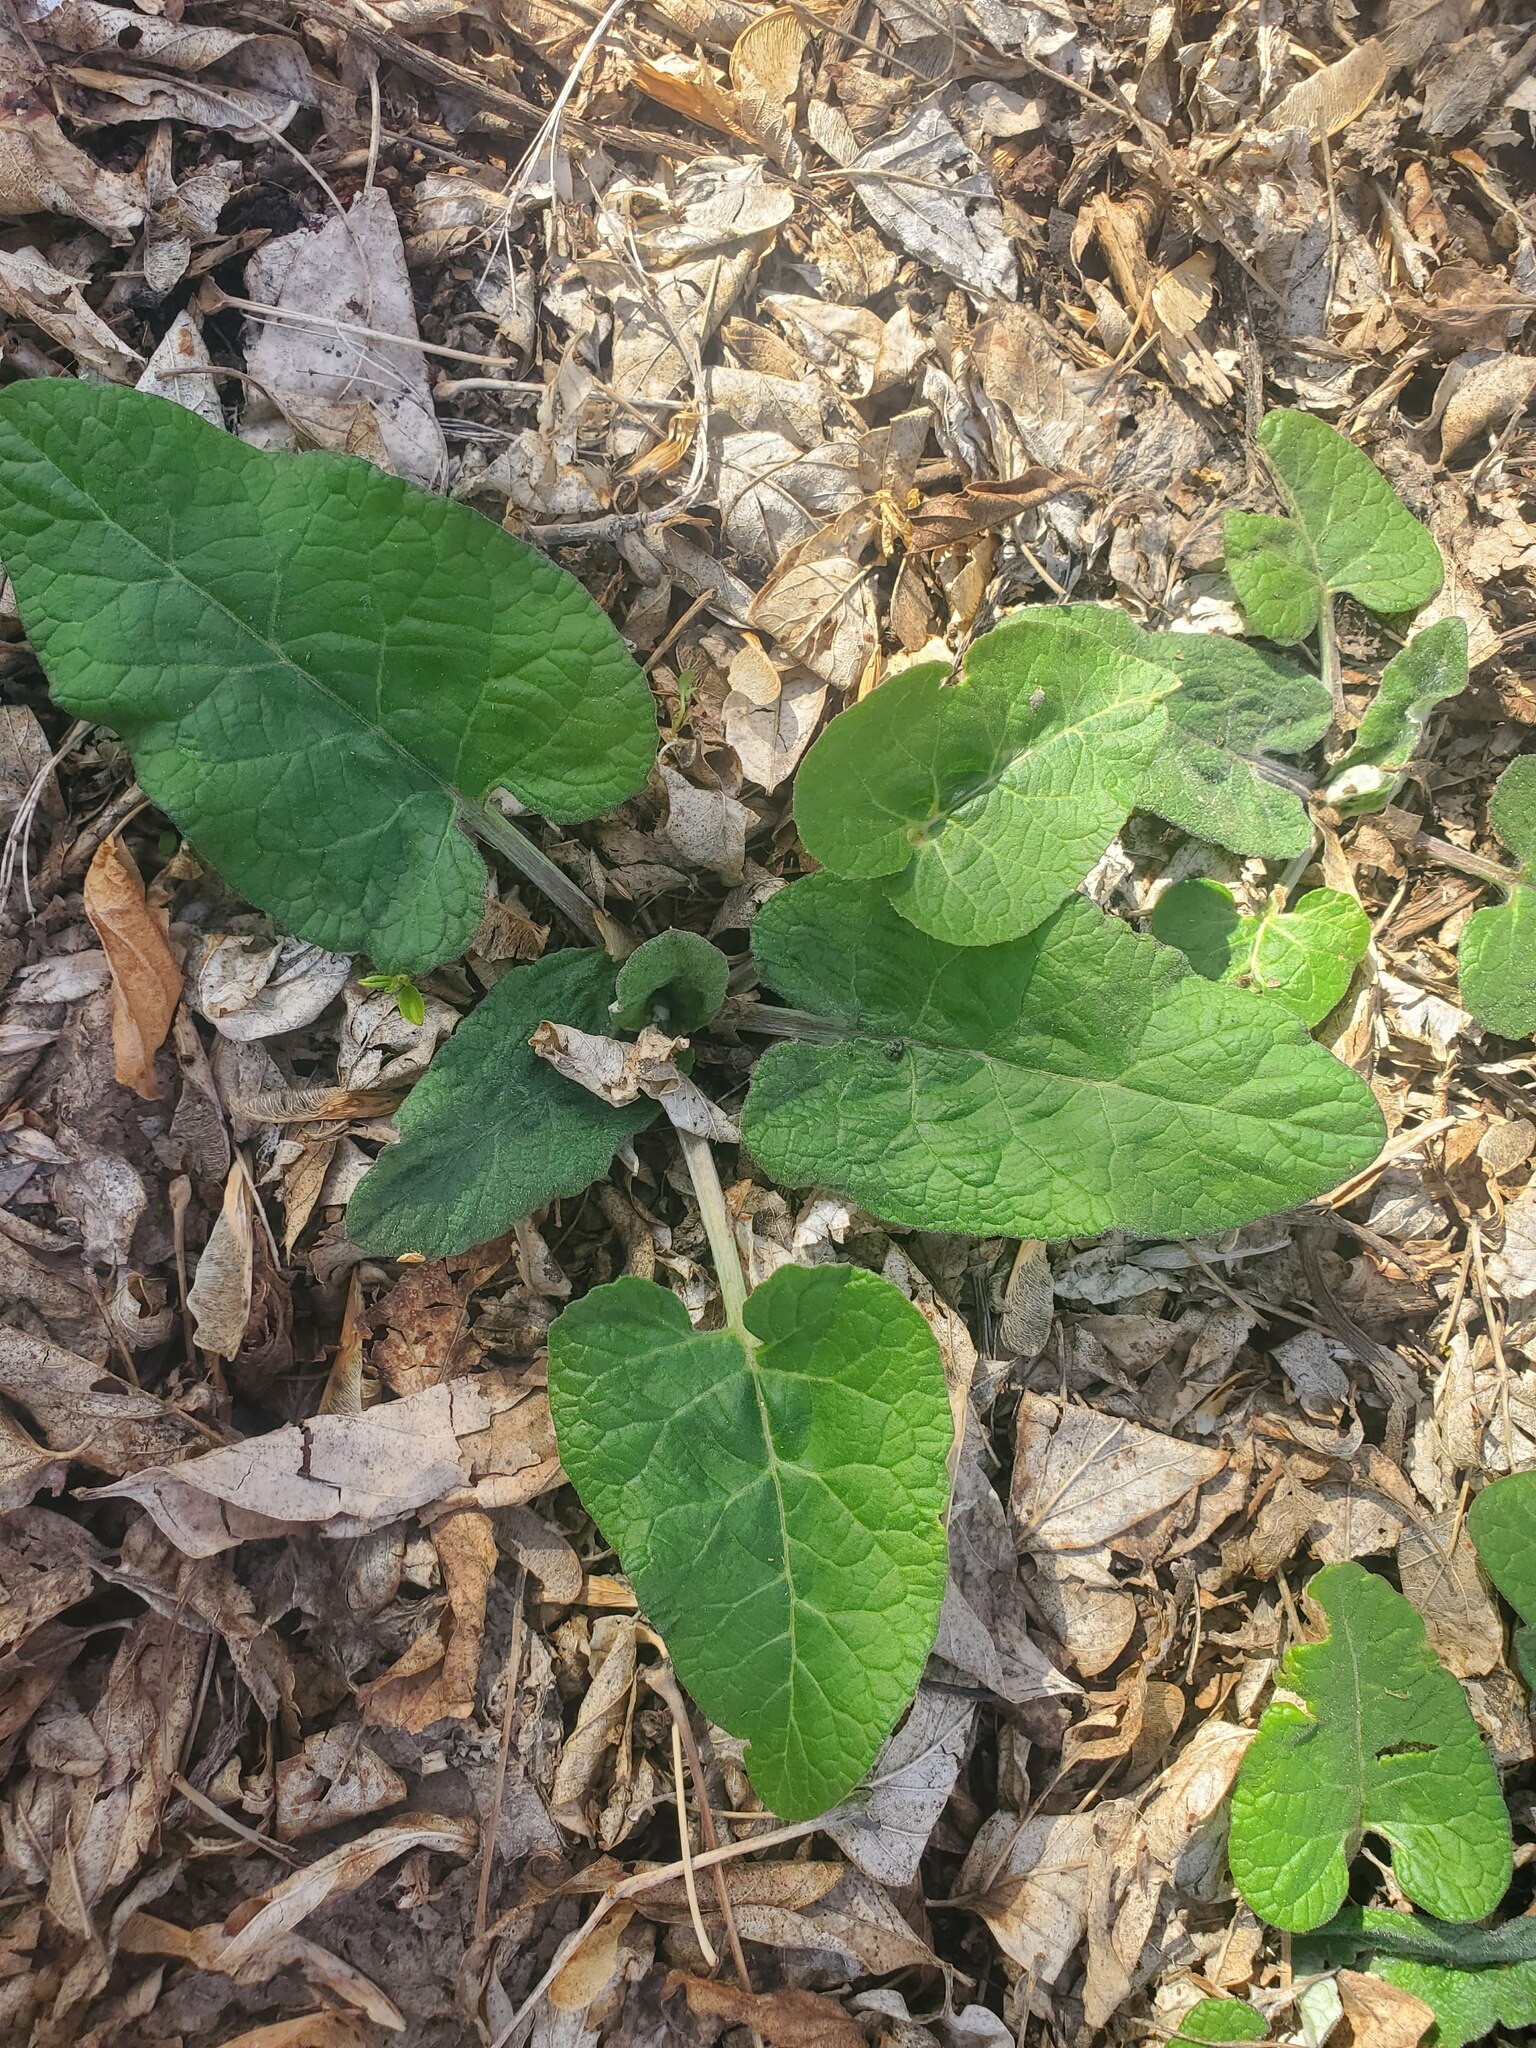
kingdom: Plantae
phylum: Tracheophyta
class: Magnoliopsida
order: Asterales
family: Asteraceae
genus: Arctium
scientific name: Arctium
